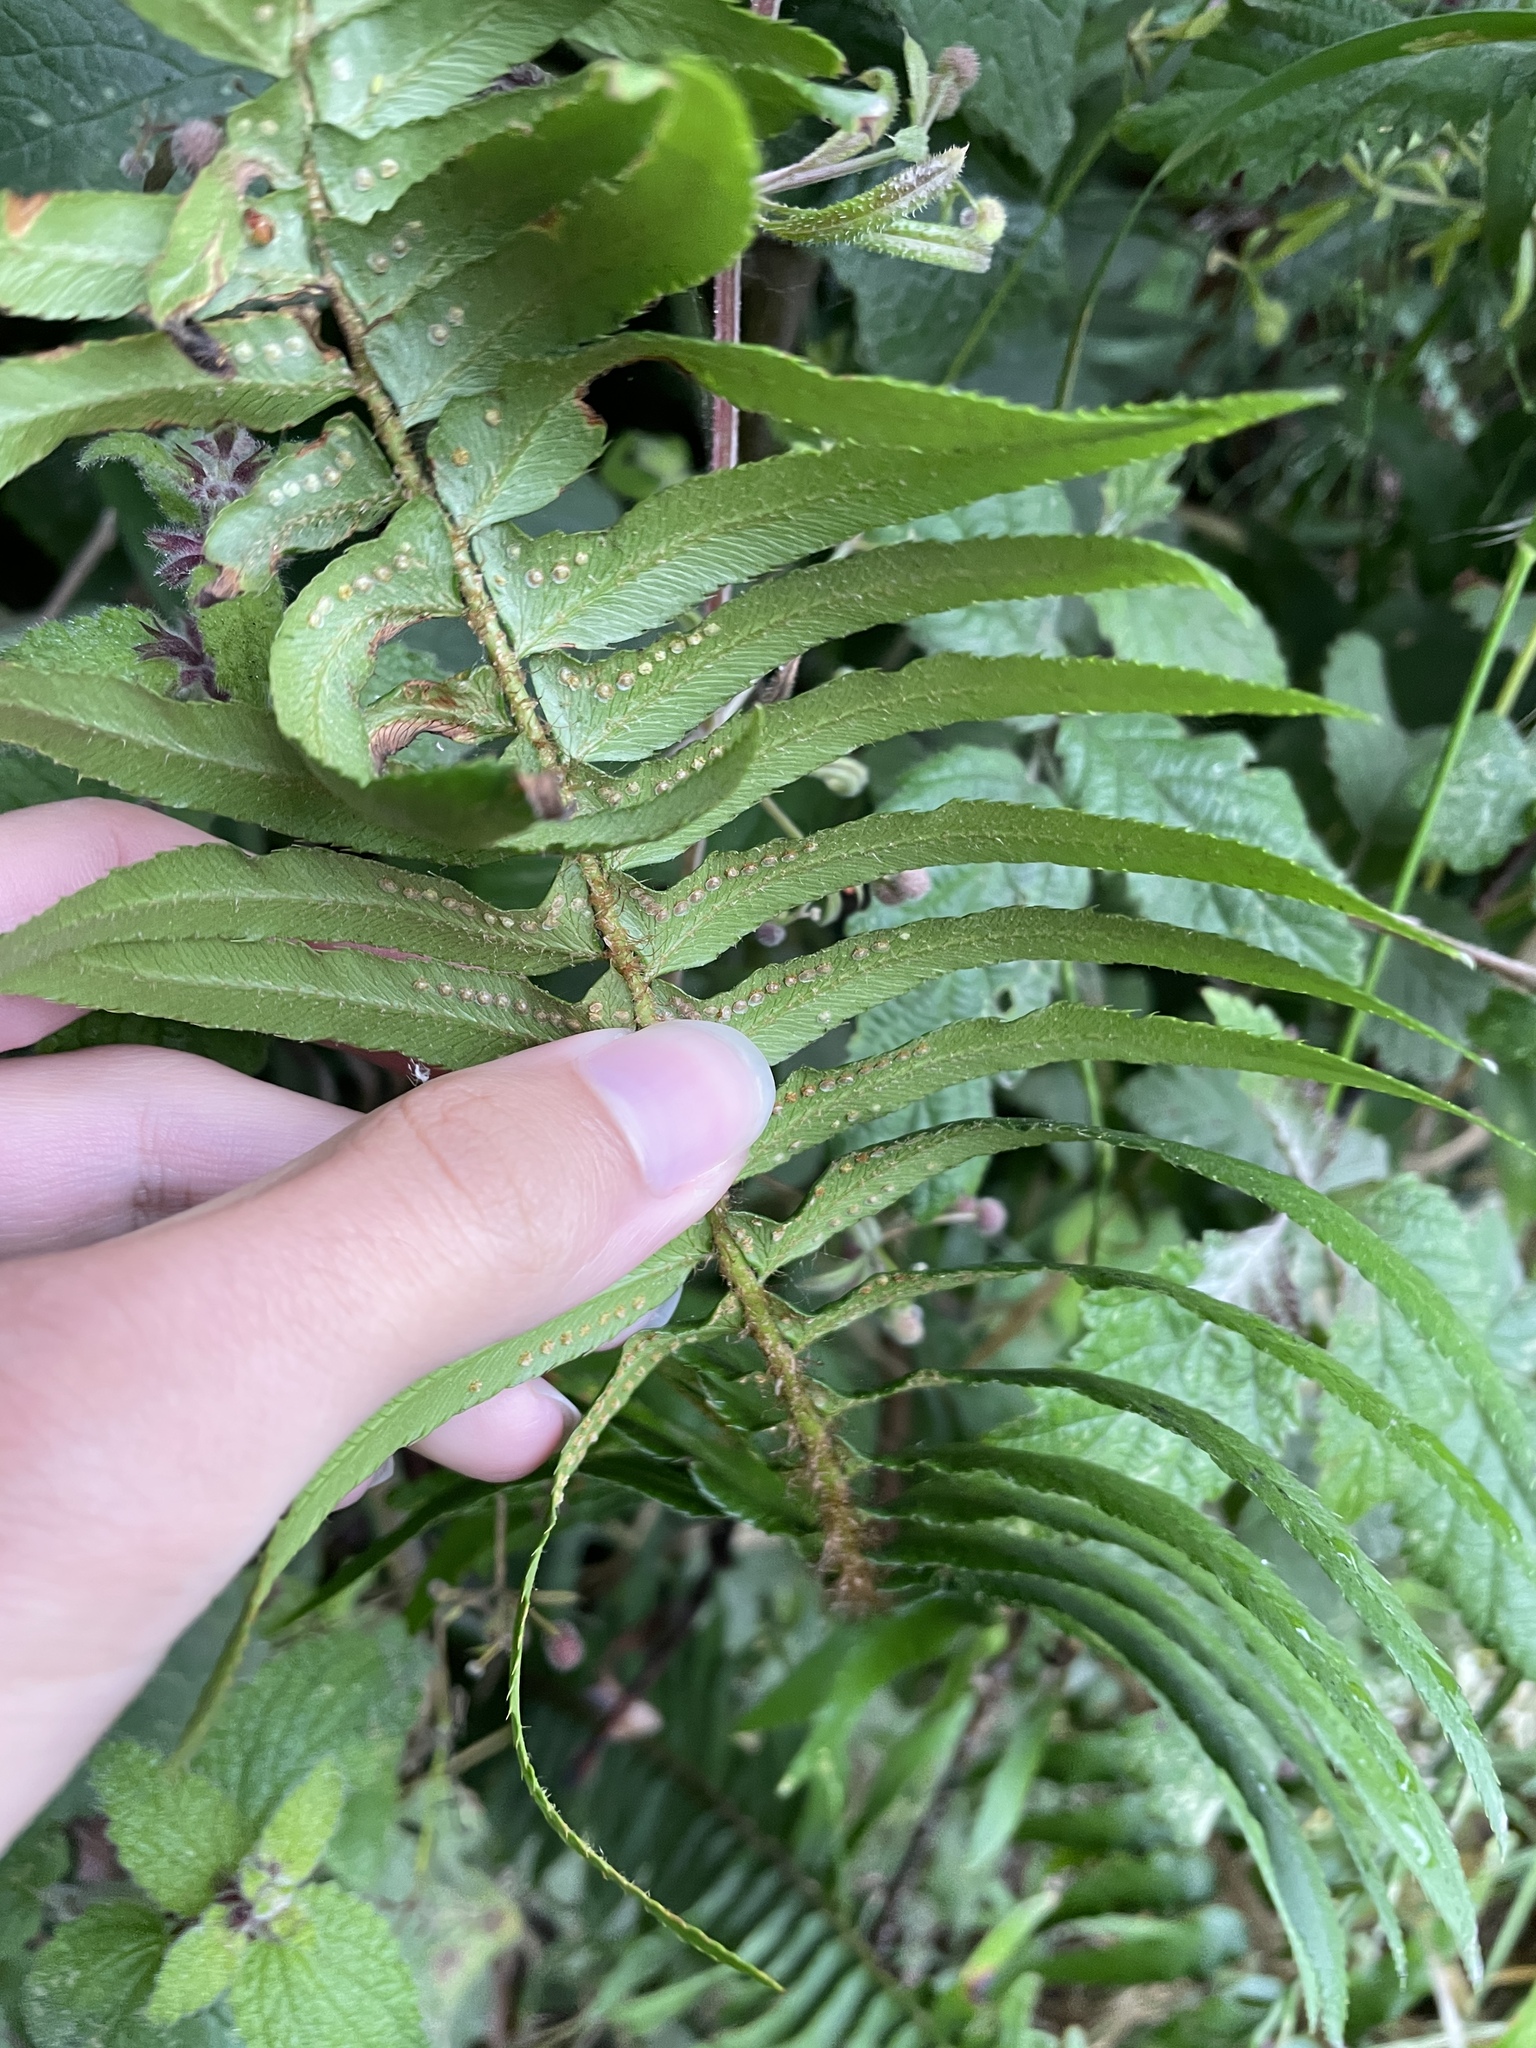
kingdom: Plantae
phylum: Tracheophyta
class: Polypodiopsida
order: Polypodiales
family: Dryopteridaceae
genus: Polystichum
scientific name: Polystichum munitum
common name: Western sword-fern
